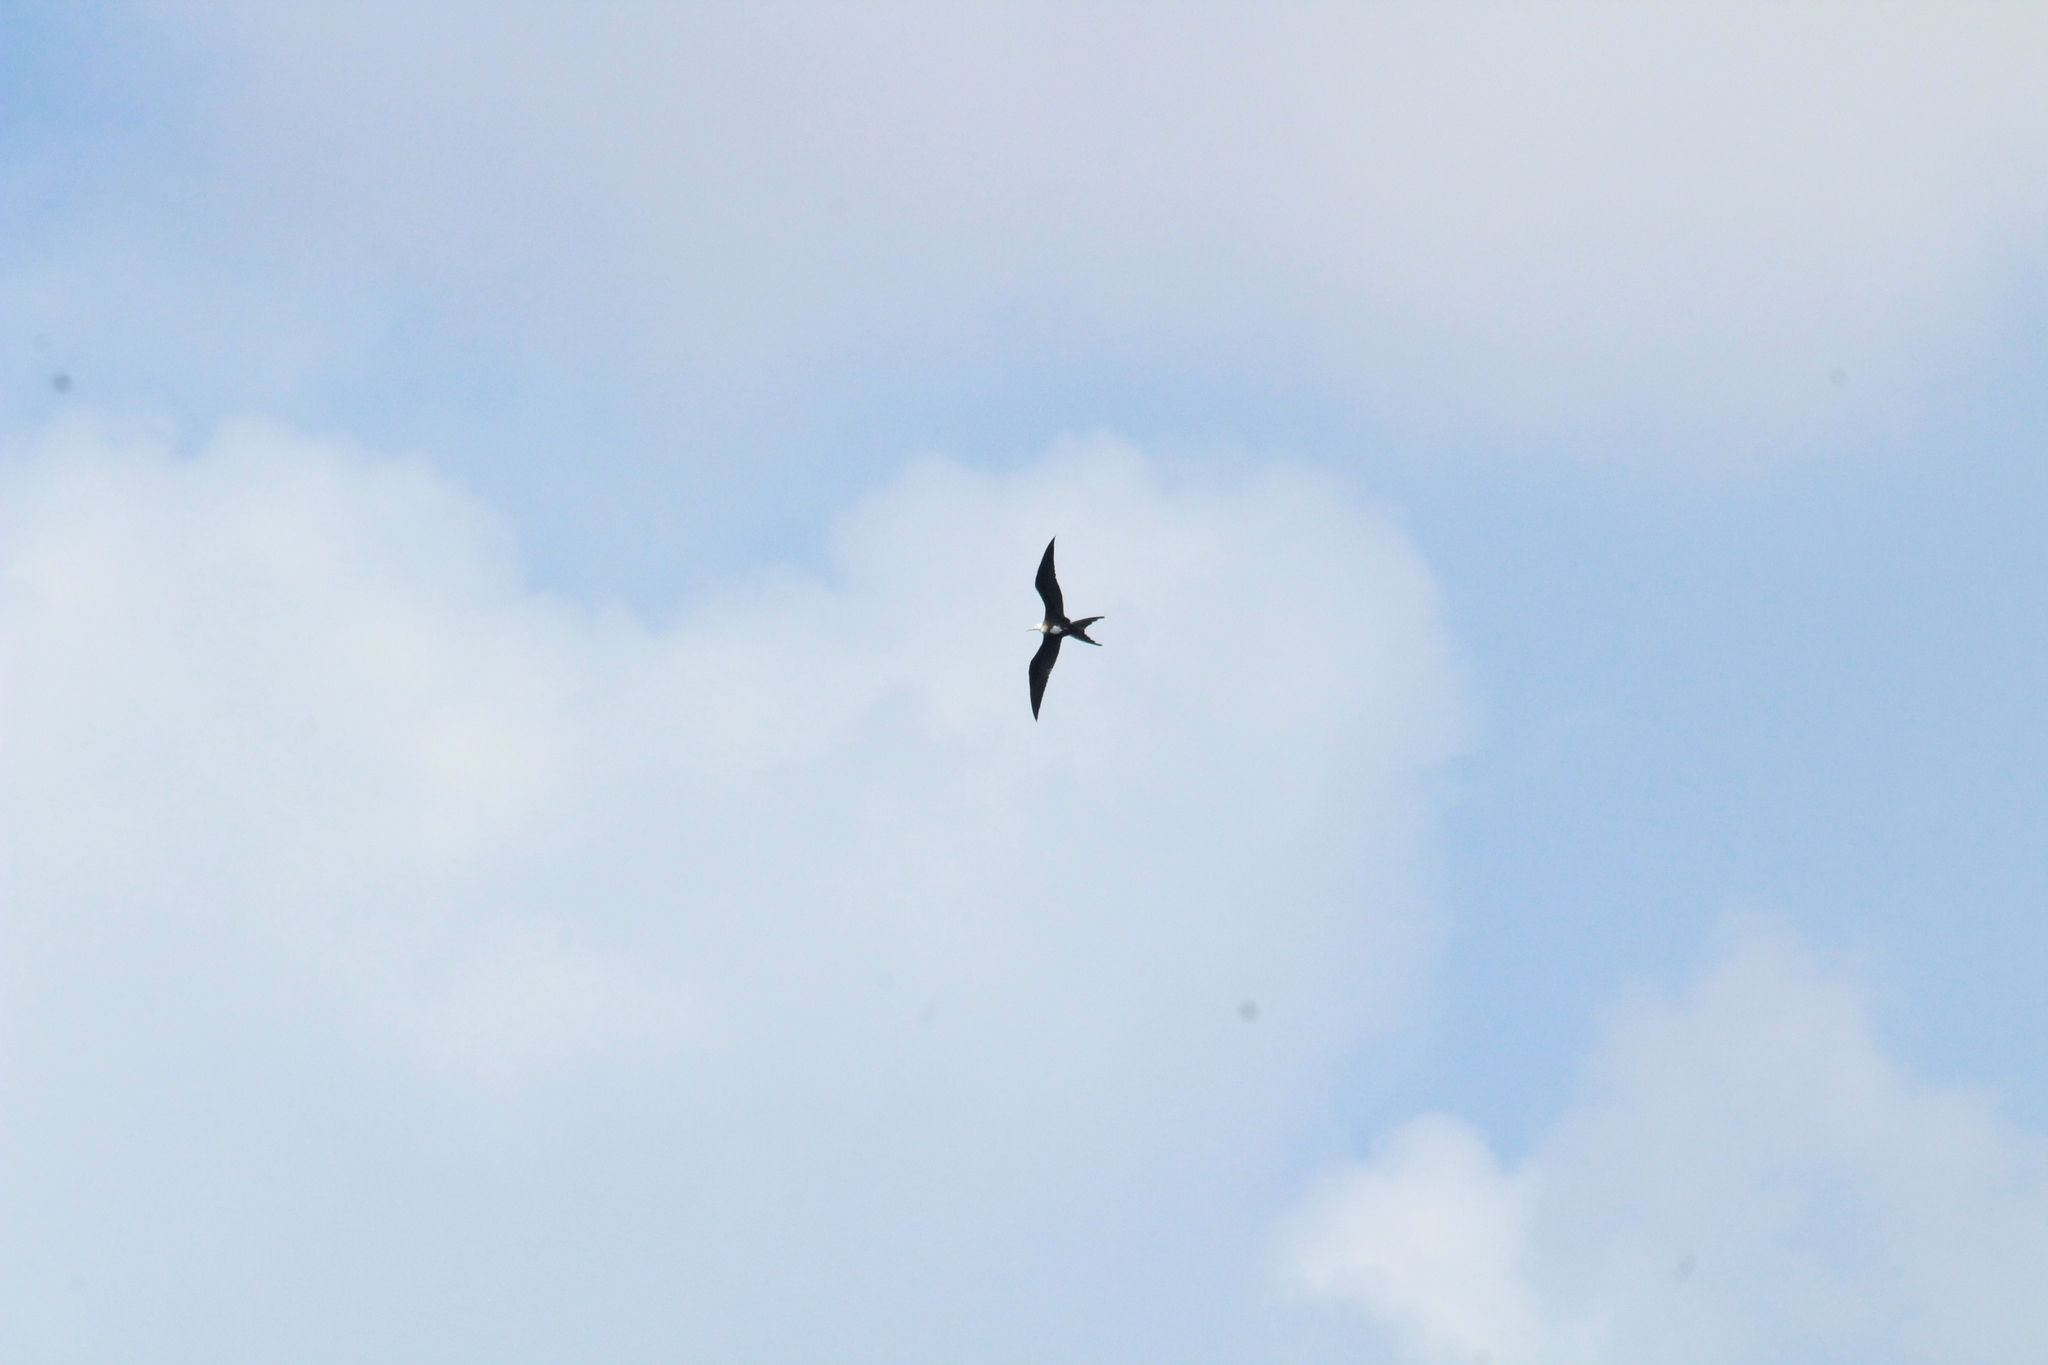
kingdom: Animalia
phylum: Chordata
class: Aves
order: Suliformes
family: Fregatidae
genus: Fregata
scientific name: Fregata magnificens
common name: Magnificent frigatebird
